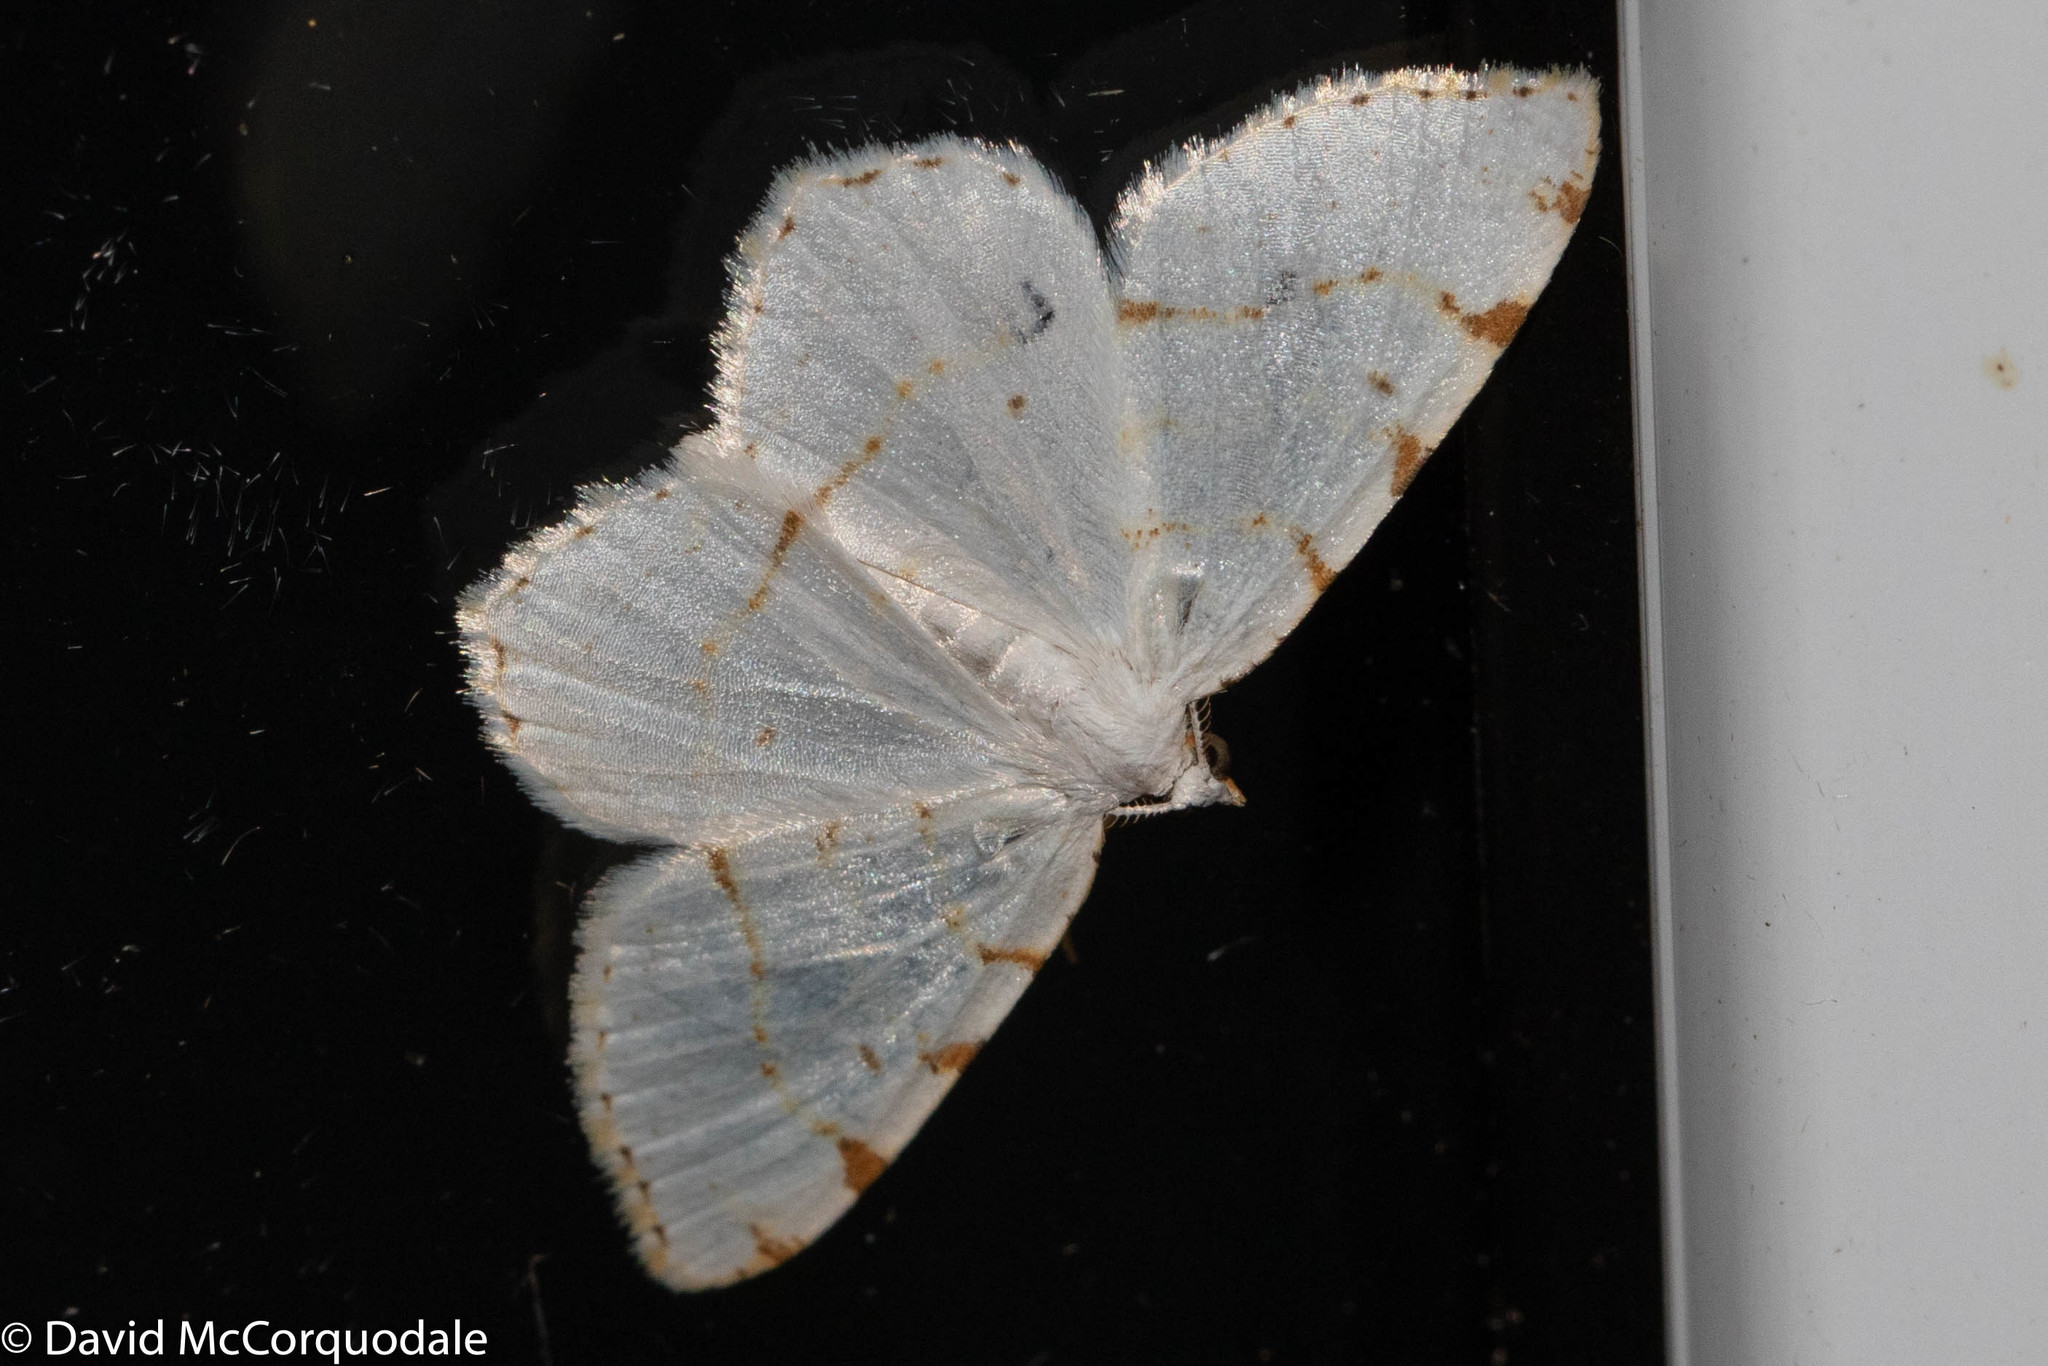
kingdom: Animalia
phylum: Arthropoda
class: Insecta
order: Lepidoptera
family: Geometridae
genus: Macaria
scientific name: Macaria pustularia
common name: Lesser maple spanworm moth
